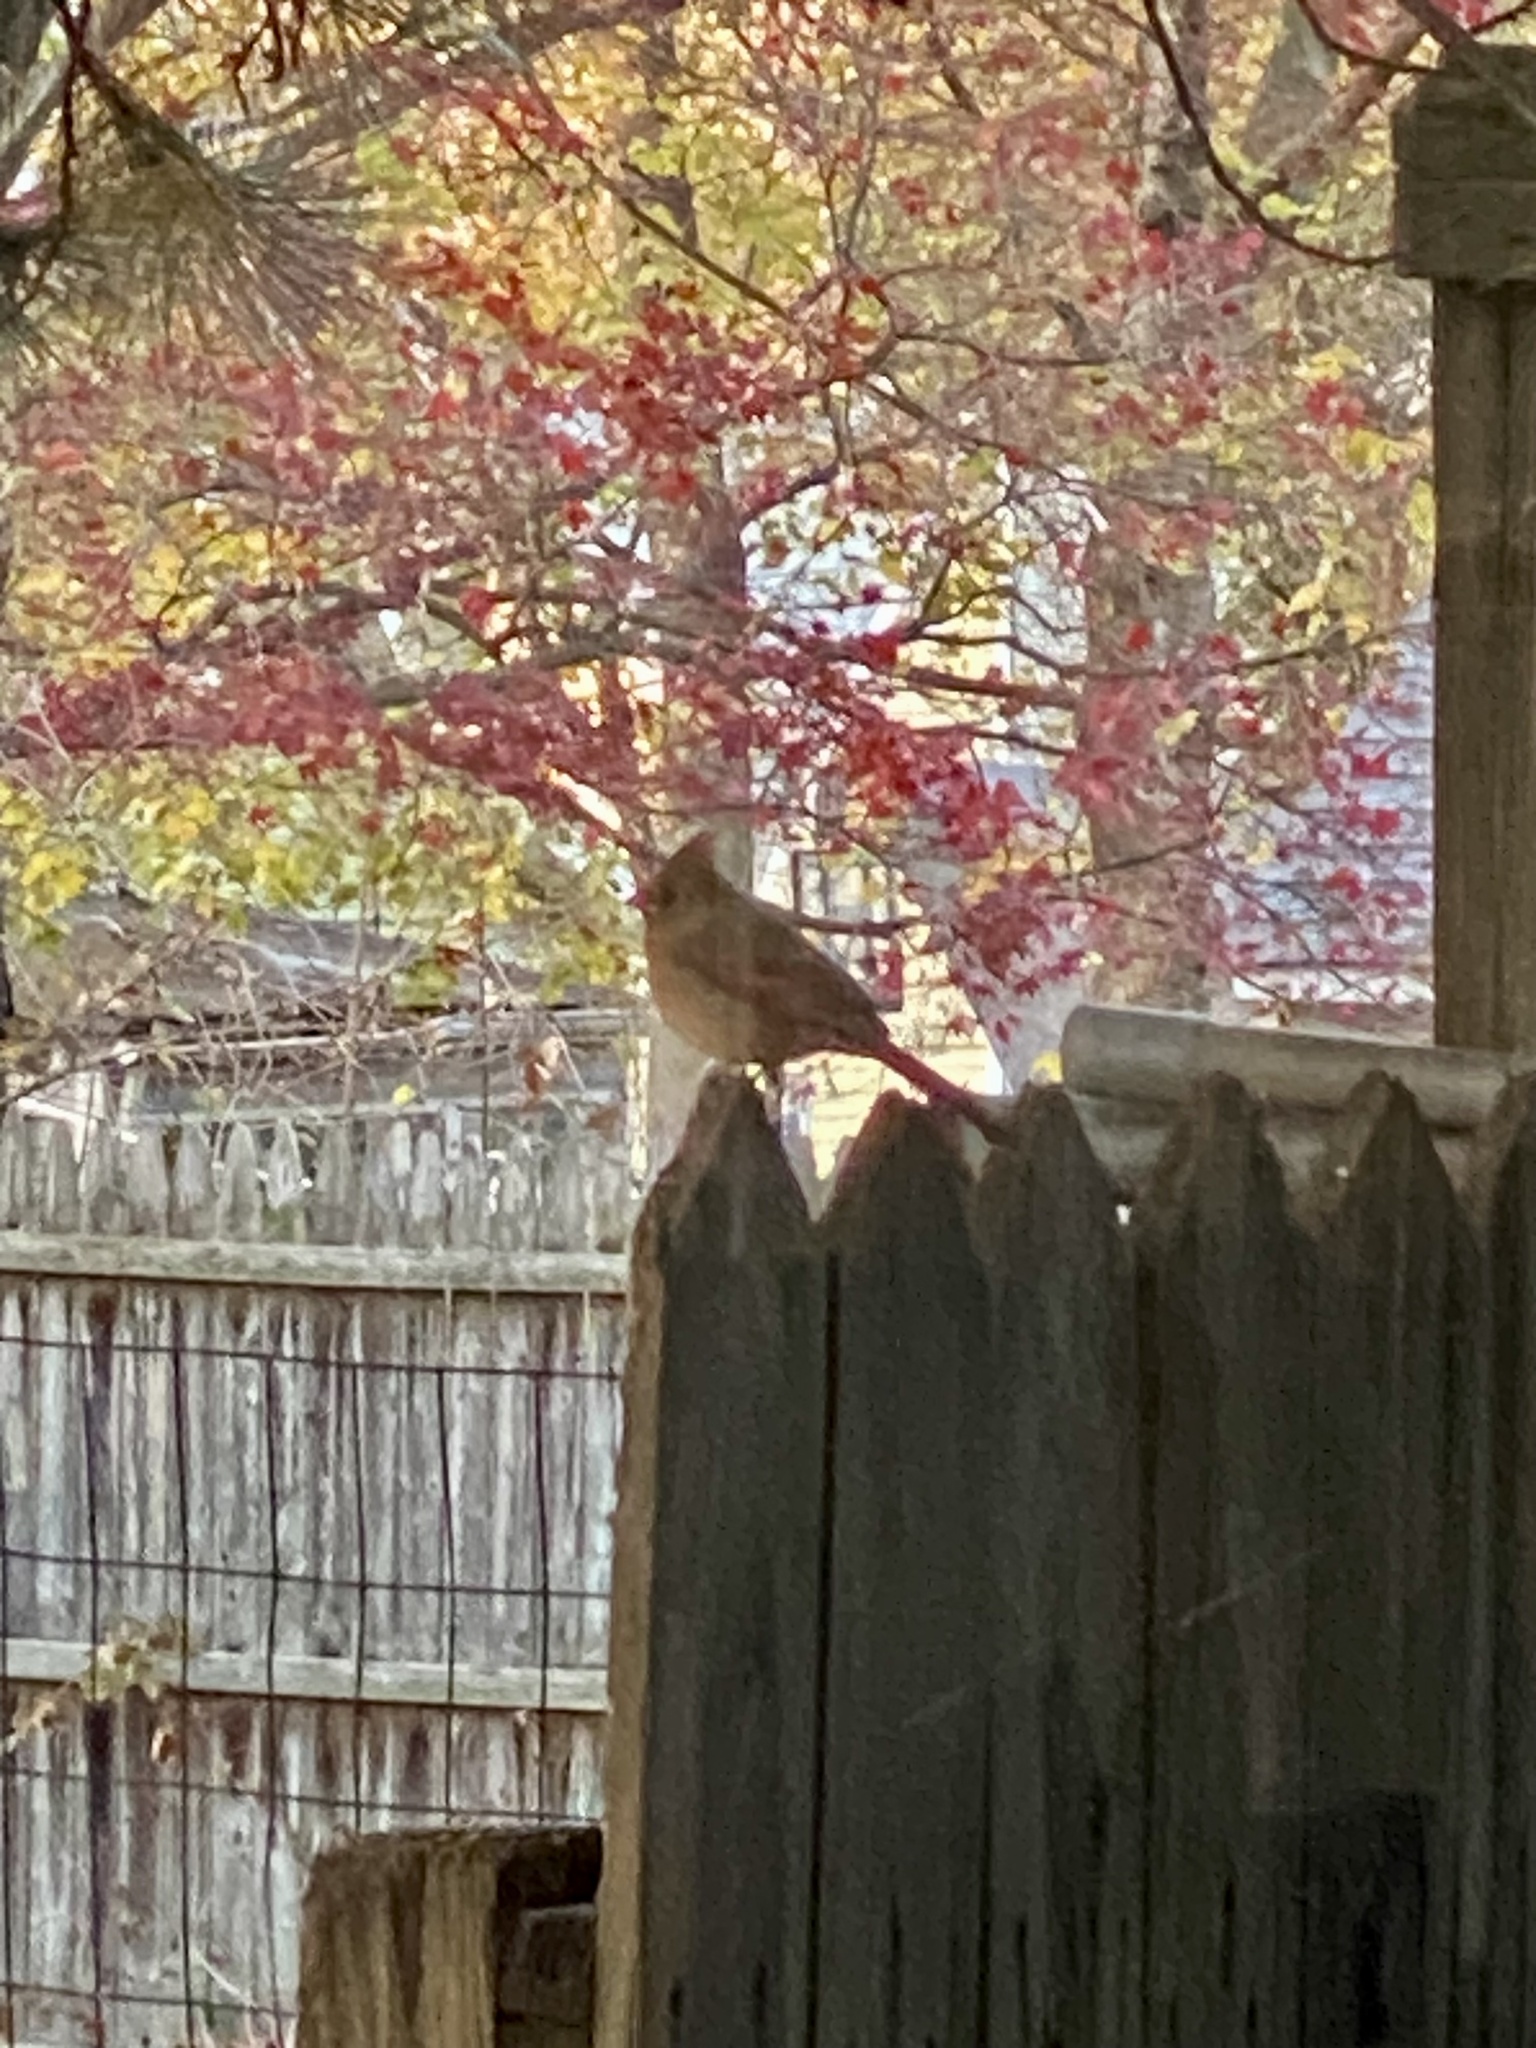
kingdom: Animalia
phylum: Chordata
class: Aves
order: Passeriformes
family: Cardinalidae
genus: Cardinalis
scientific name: Cardinalis cardinalis
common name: Northern cardinal
